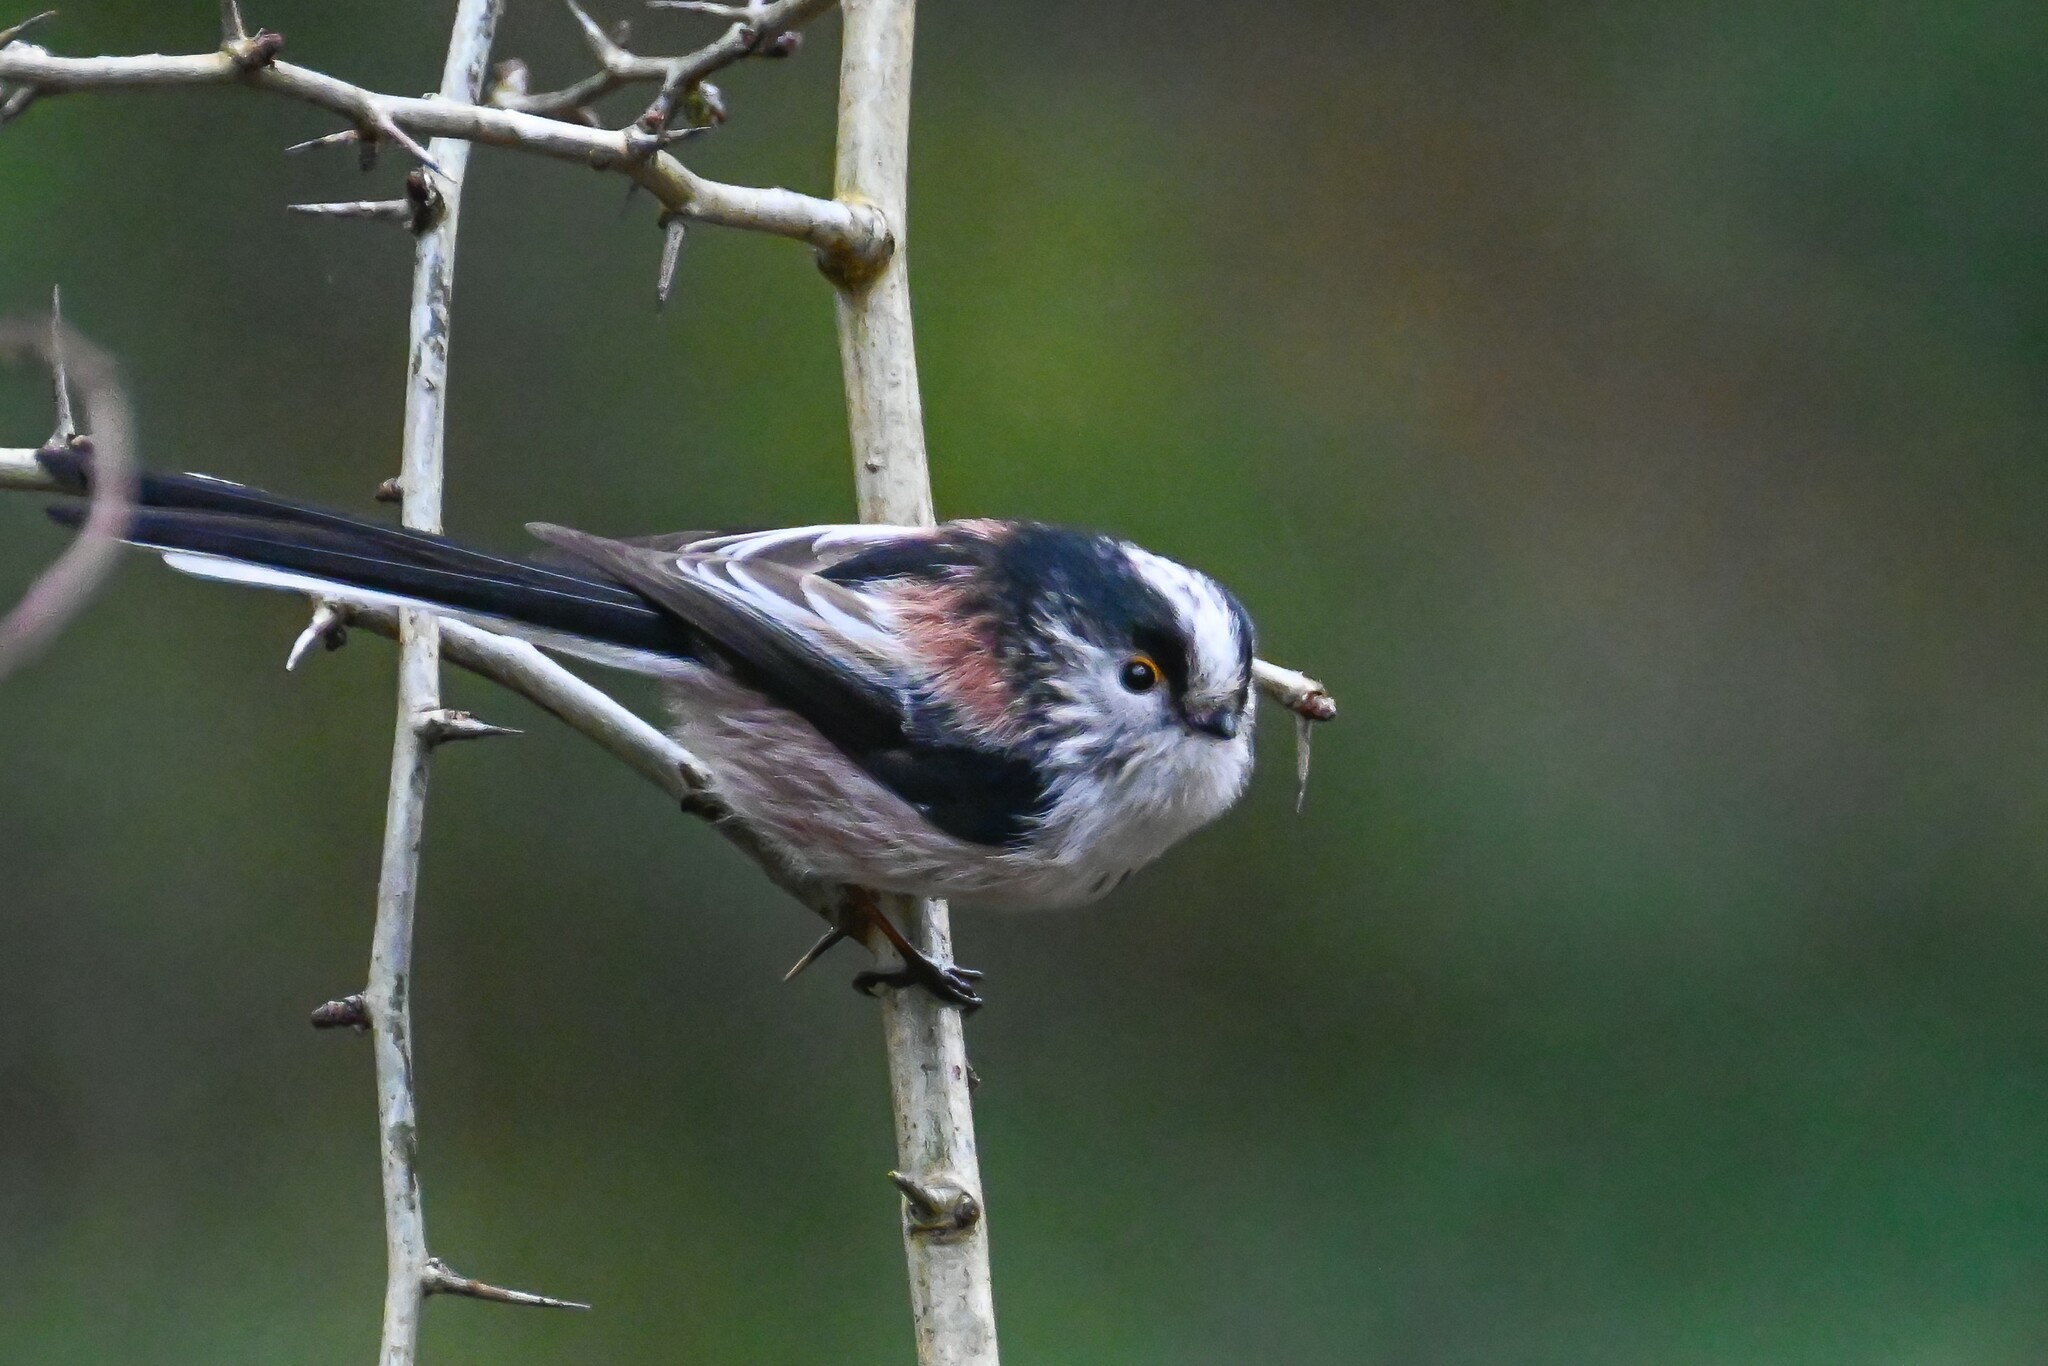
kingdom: Animalia
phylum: Chordata
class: Aves
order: Passeriformes
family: Aegithalidae
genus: Aegithalos
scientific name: Aegithalos caudatus
